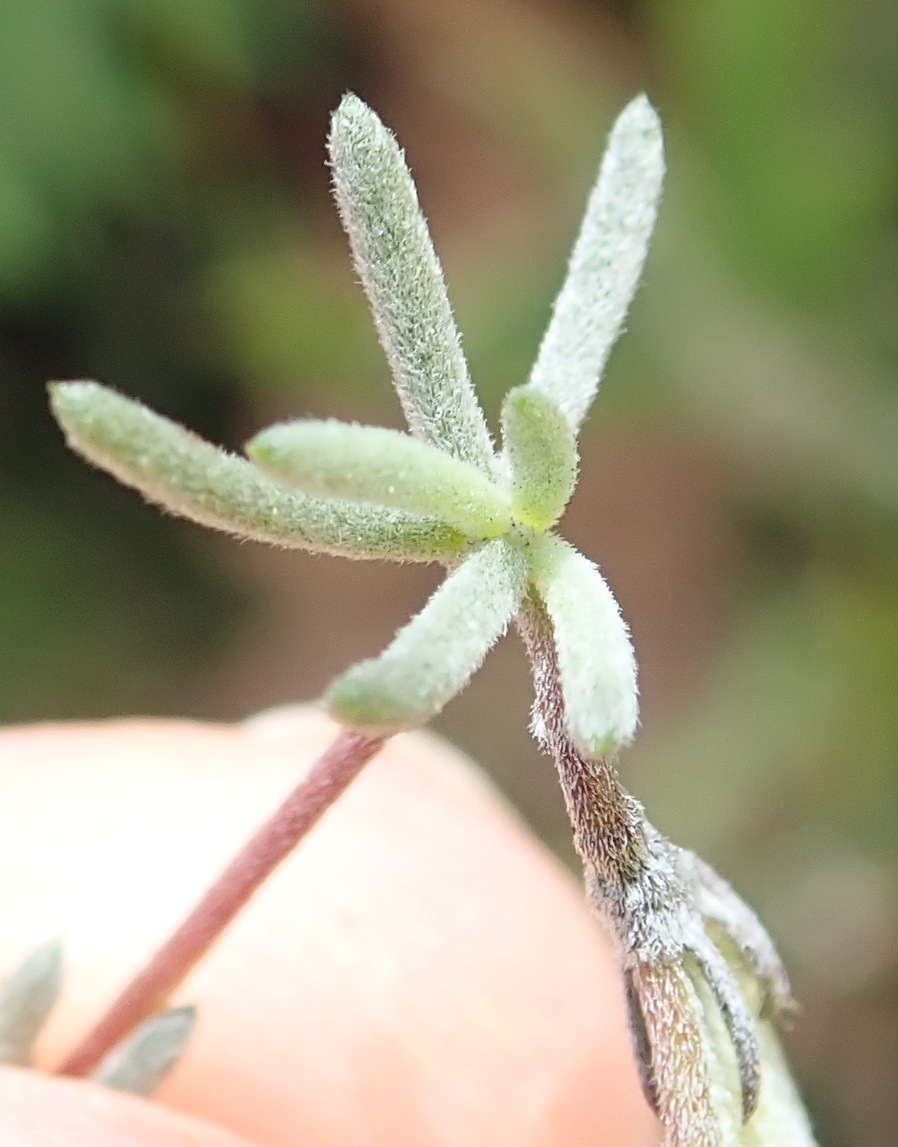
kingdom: Plantae
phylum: Tracheophyta
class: Magnoliopsida
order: Fabales
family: Fabaceae
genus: Aspalathus
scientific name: Aspalathus digitifolia
